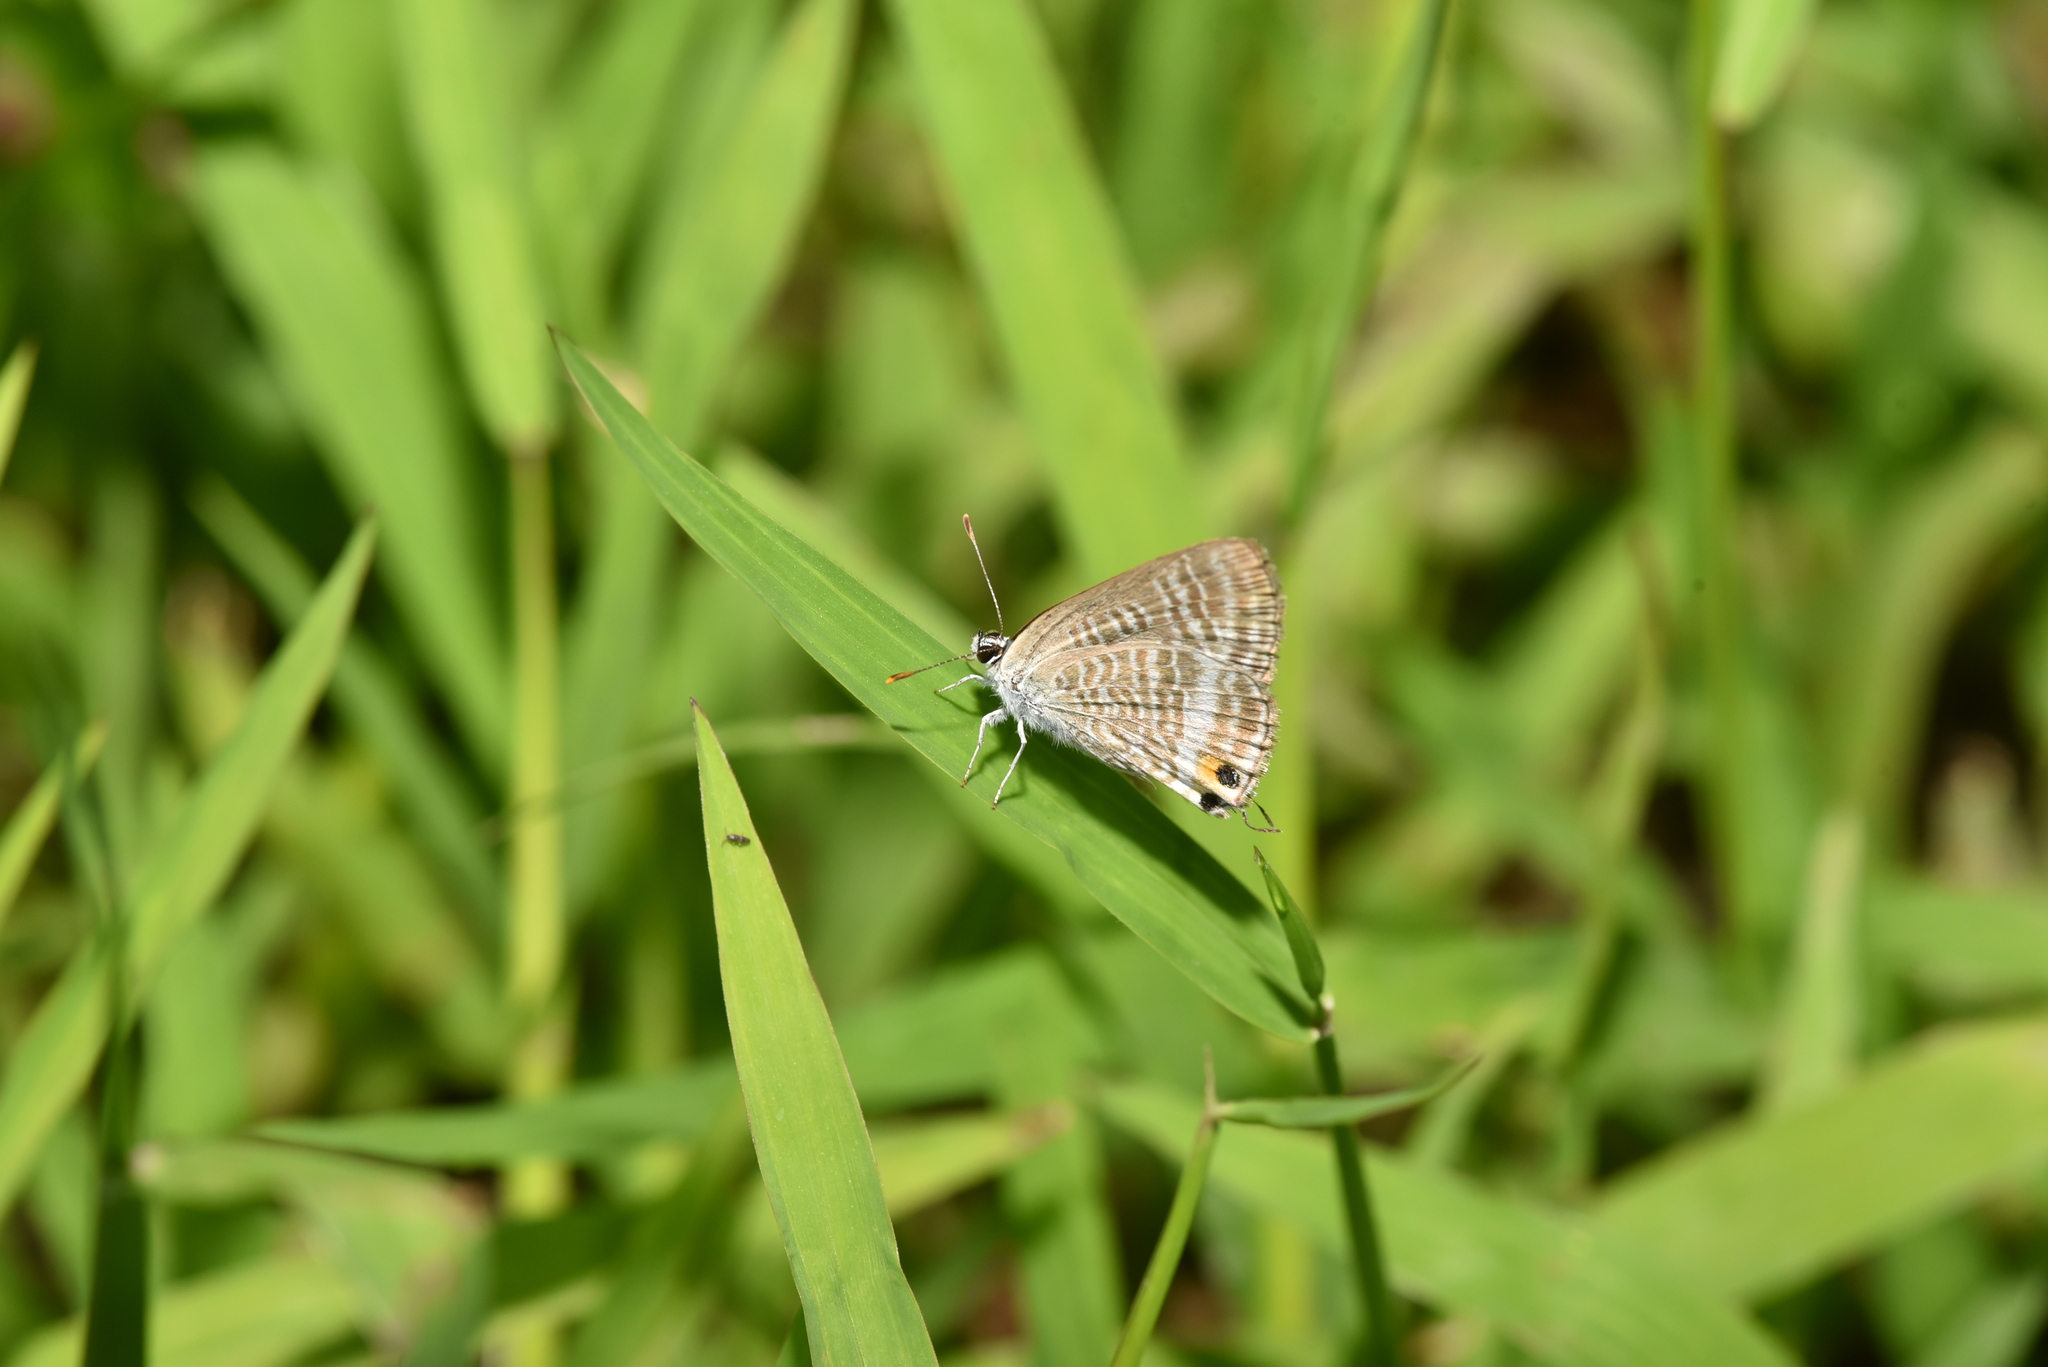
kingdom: Animalia
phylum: Arthropoda
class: Insecta
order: Lepidoptera
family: Lycaenidae
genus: Lampides
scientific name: Lampides boeticus
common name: Long-tailed blue
